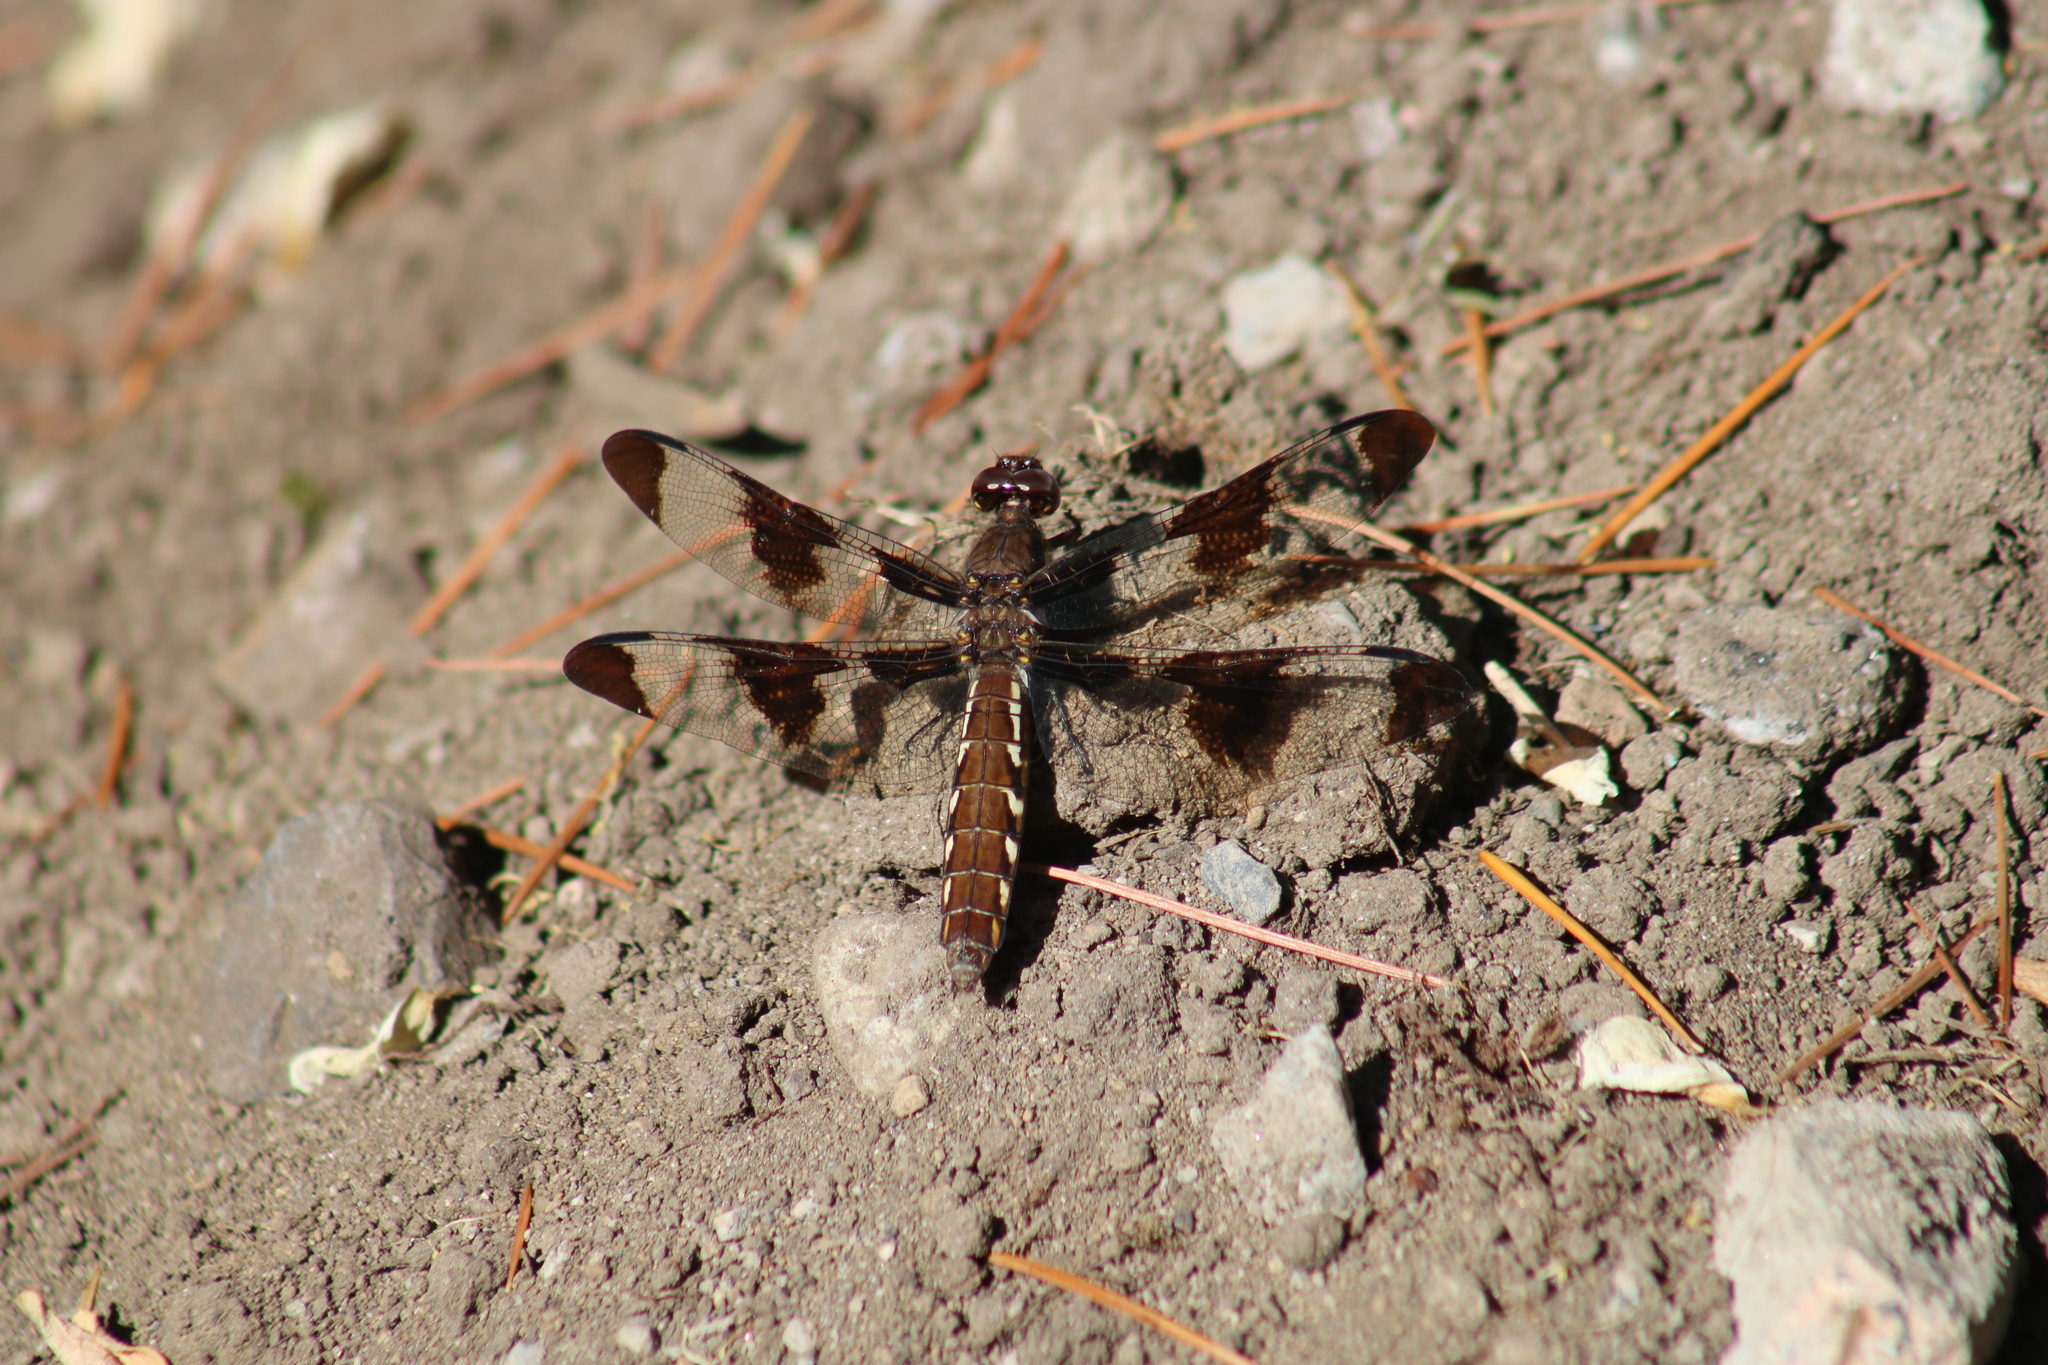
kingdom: Animalia
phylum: Arthropoda
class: Insecta
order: Odonata
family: Libellulidae
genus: Plathemis
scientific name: Plathemis lydia
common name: Common whitetail
